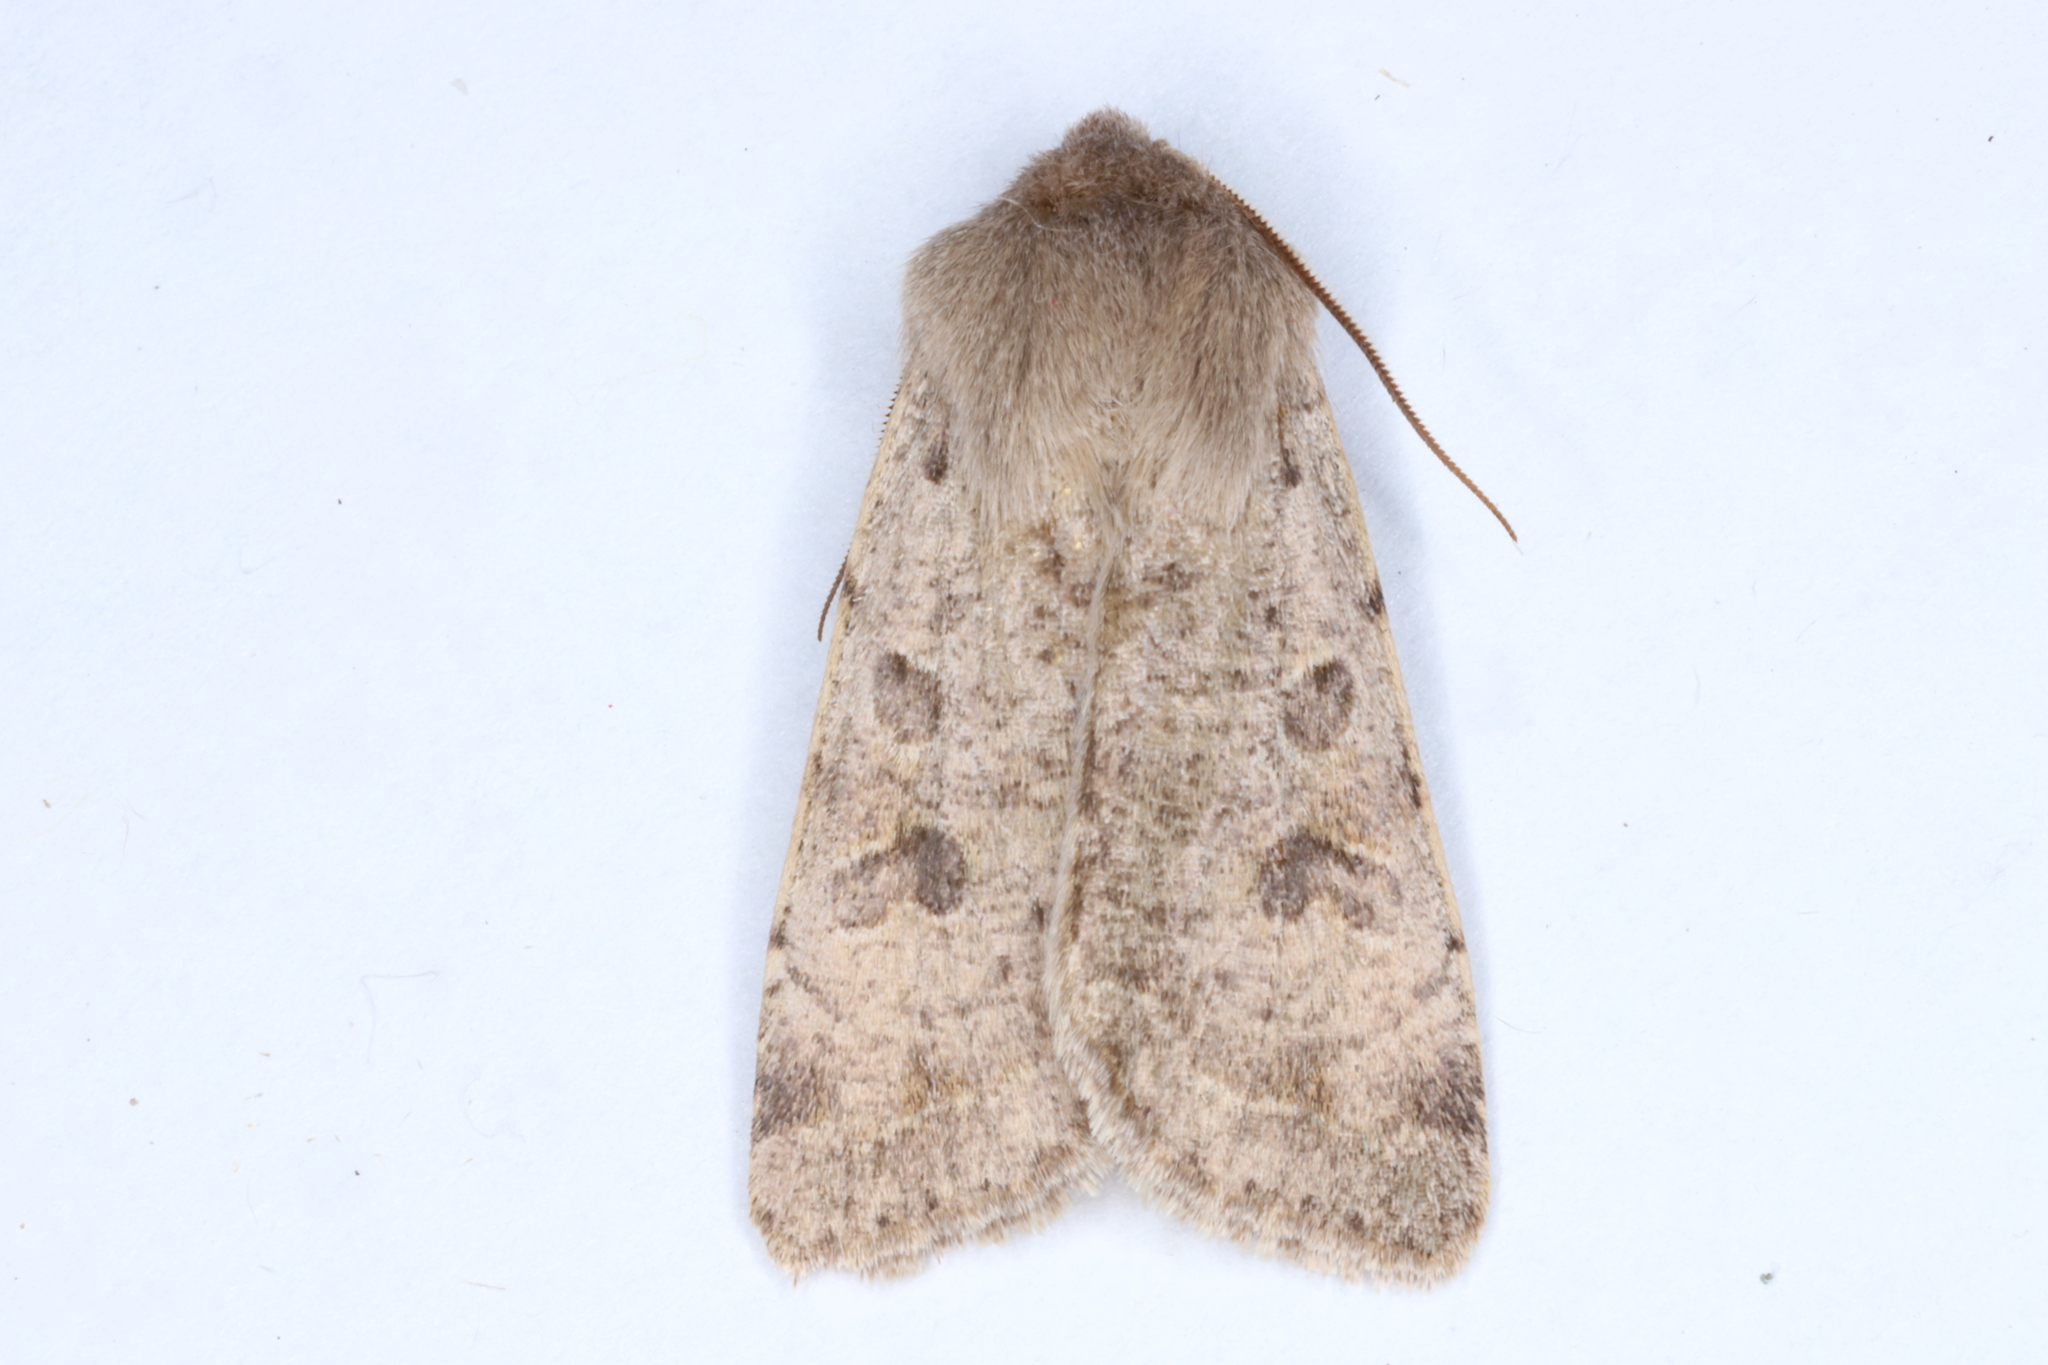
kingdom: Animalia
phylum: Arthropoda
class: Insecta
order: Lepidoptera
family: Noctuidae
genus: Orthosia
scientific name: Orthosia hibisci
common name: Green fruitworm
